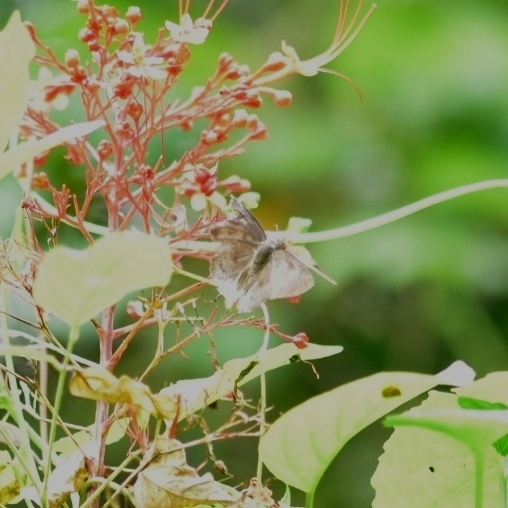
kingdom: Animalia
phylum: Arthropoda
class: Insecta
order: Lepidoptera
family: Hesperiidae
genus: Tagiades
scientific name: Tagiades gana
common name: Suffused snow flat
